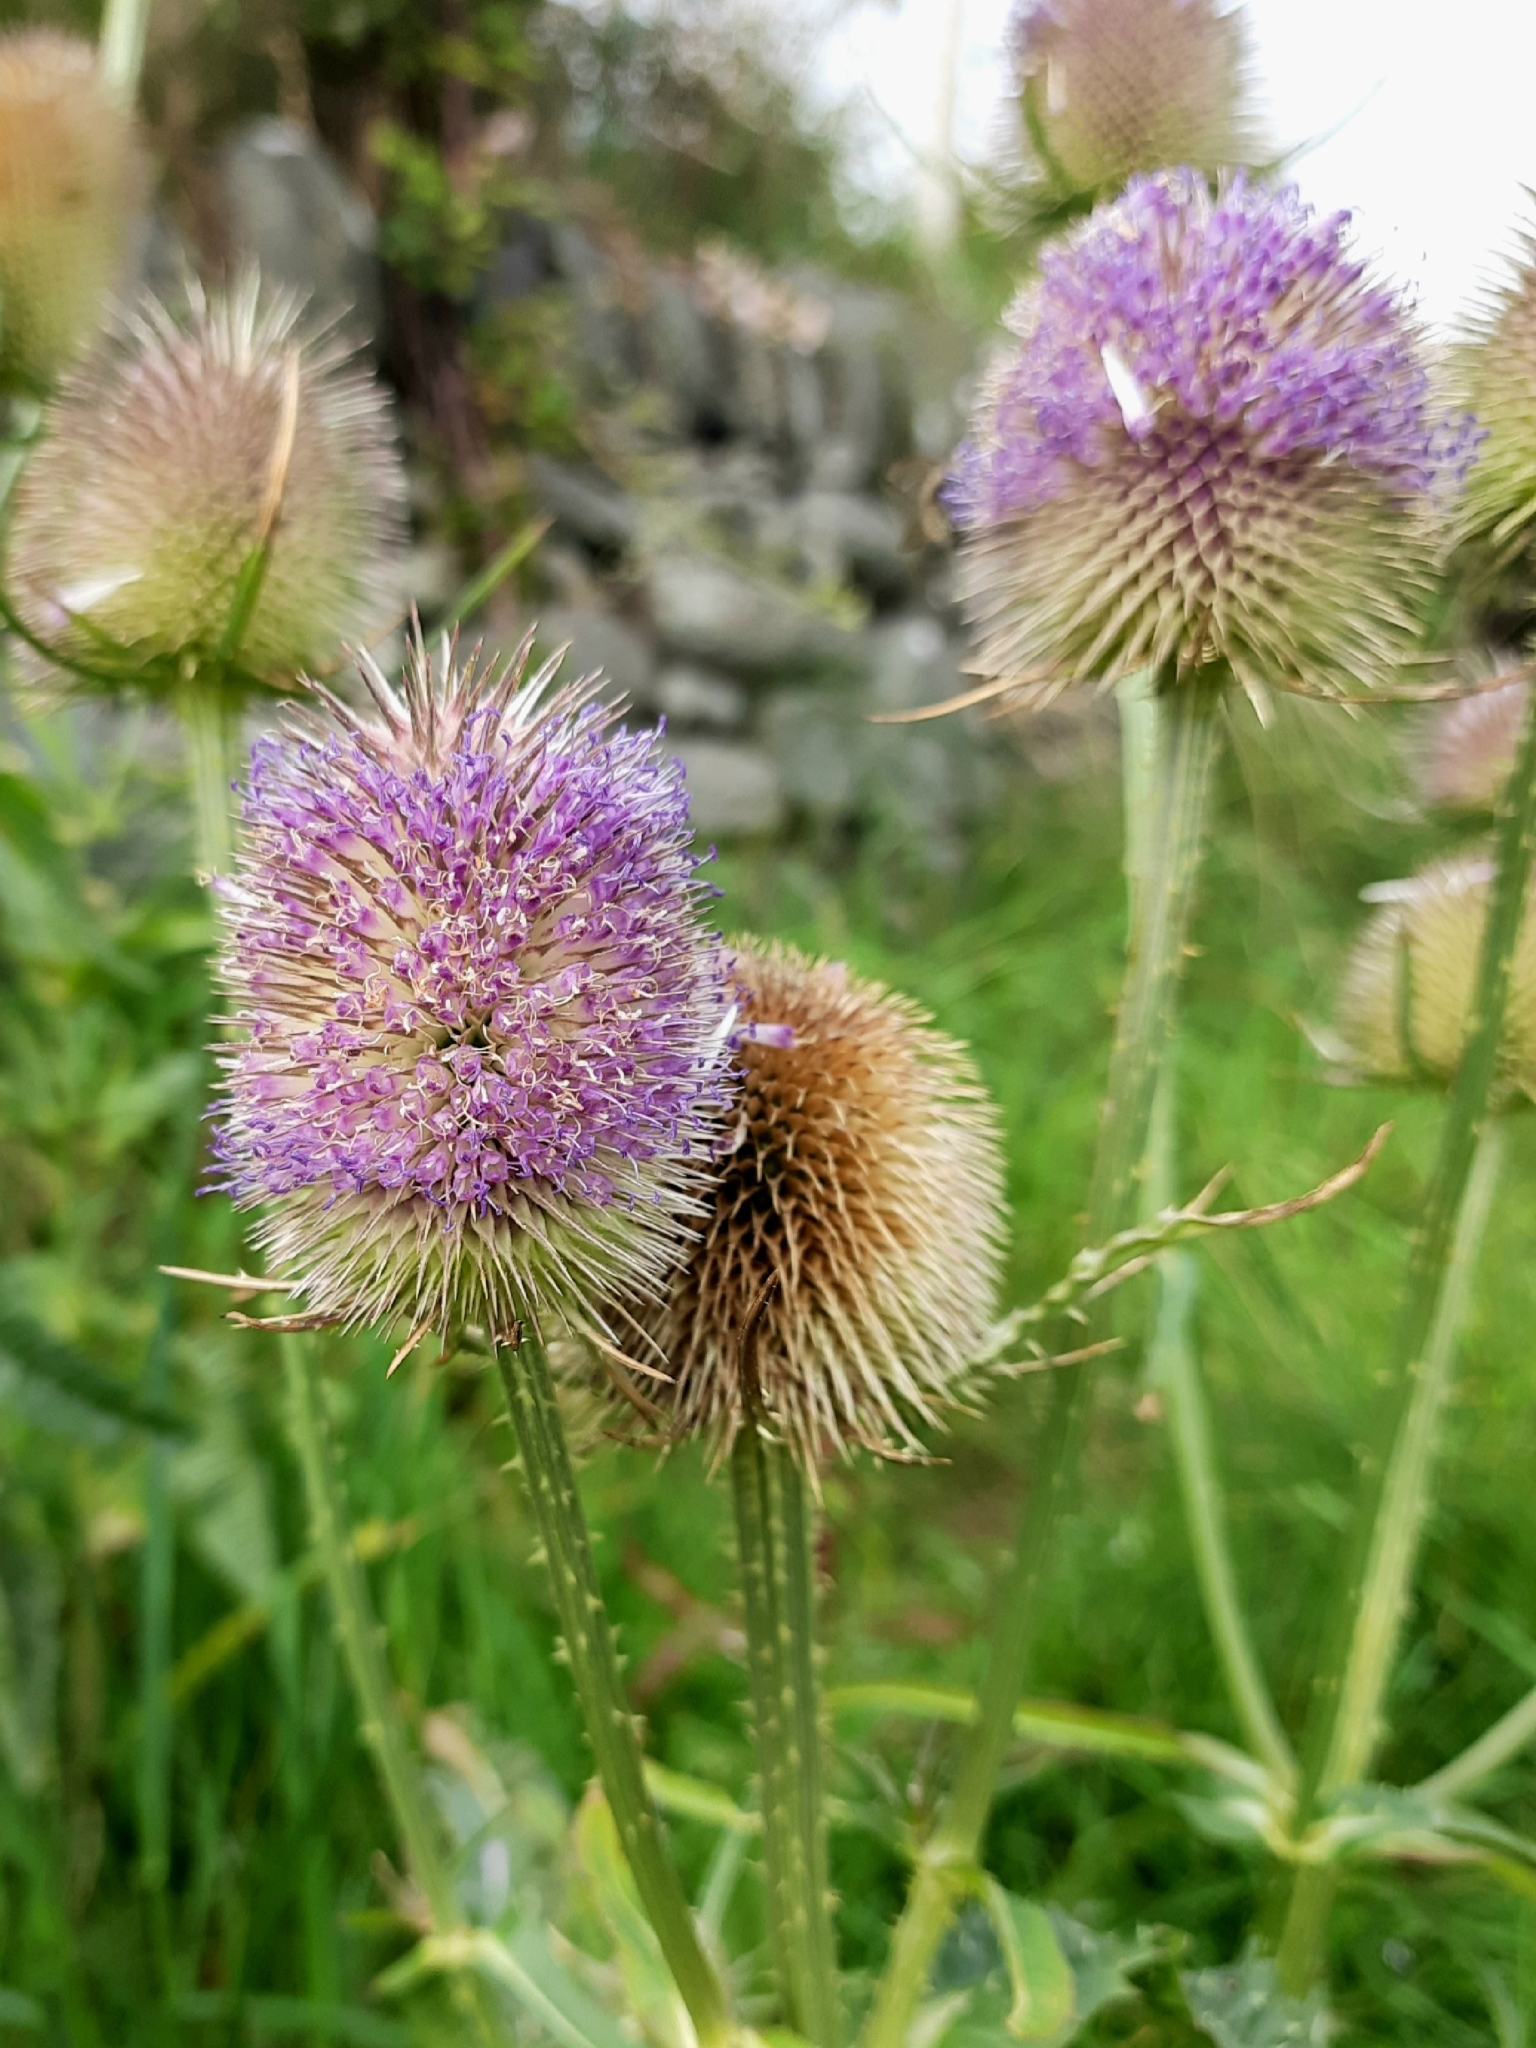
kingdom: Plantae
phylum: Tracheophyta
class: Magnoliopsida
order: Dipsacales
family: Caprifoliaceae
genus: Dipsacus
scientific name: Dipsacus fullonum
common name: Teasel
